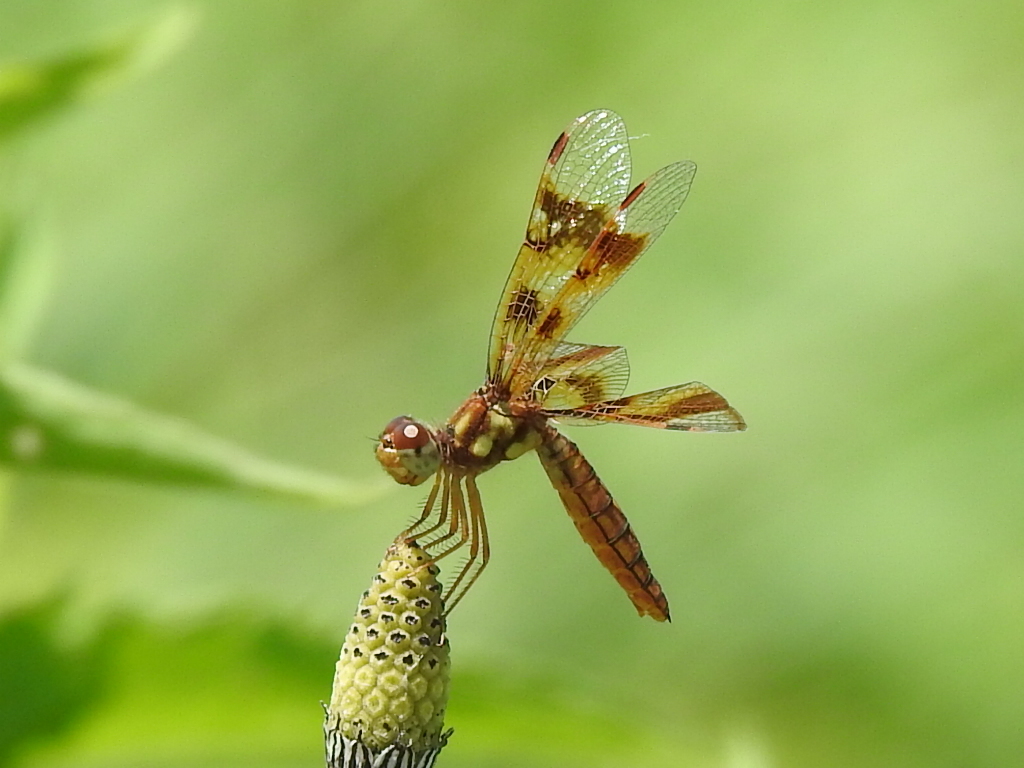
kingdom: Animalia
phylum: Arthropoda
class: Insecta
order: Odonata
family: Libellulidae
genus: Perithemis
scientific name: Perithemis tenera
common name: Eastern amberwing
